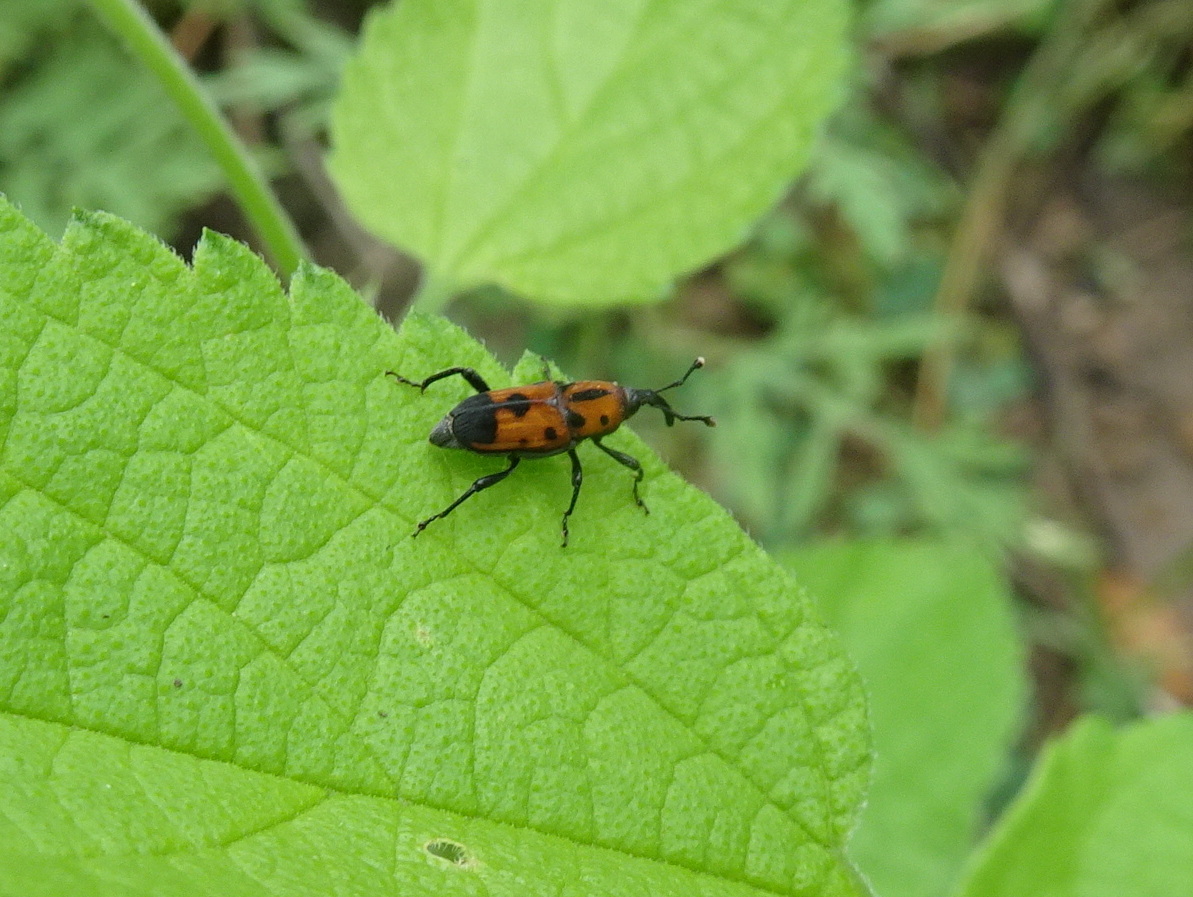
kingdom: Animalia
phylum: Arthropoda
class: Insecta
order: Coleoptera
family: Dryophthoridae
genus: Rhodobaenus
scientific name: Rhodobaenus quinquepunctatus
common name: Cocklebur weevil
